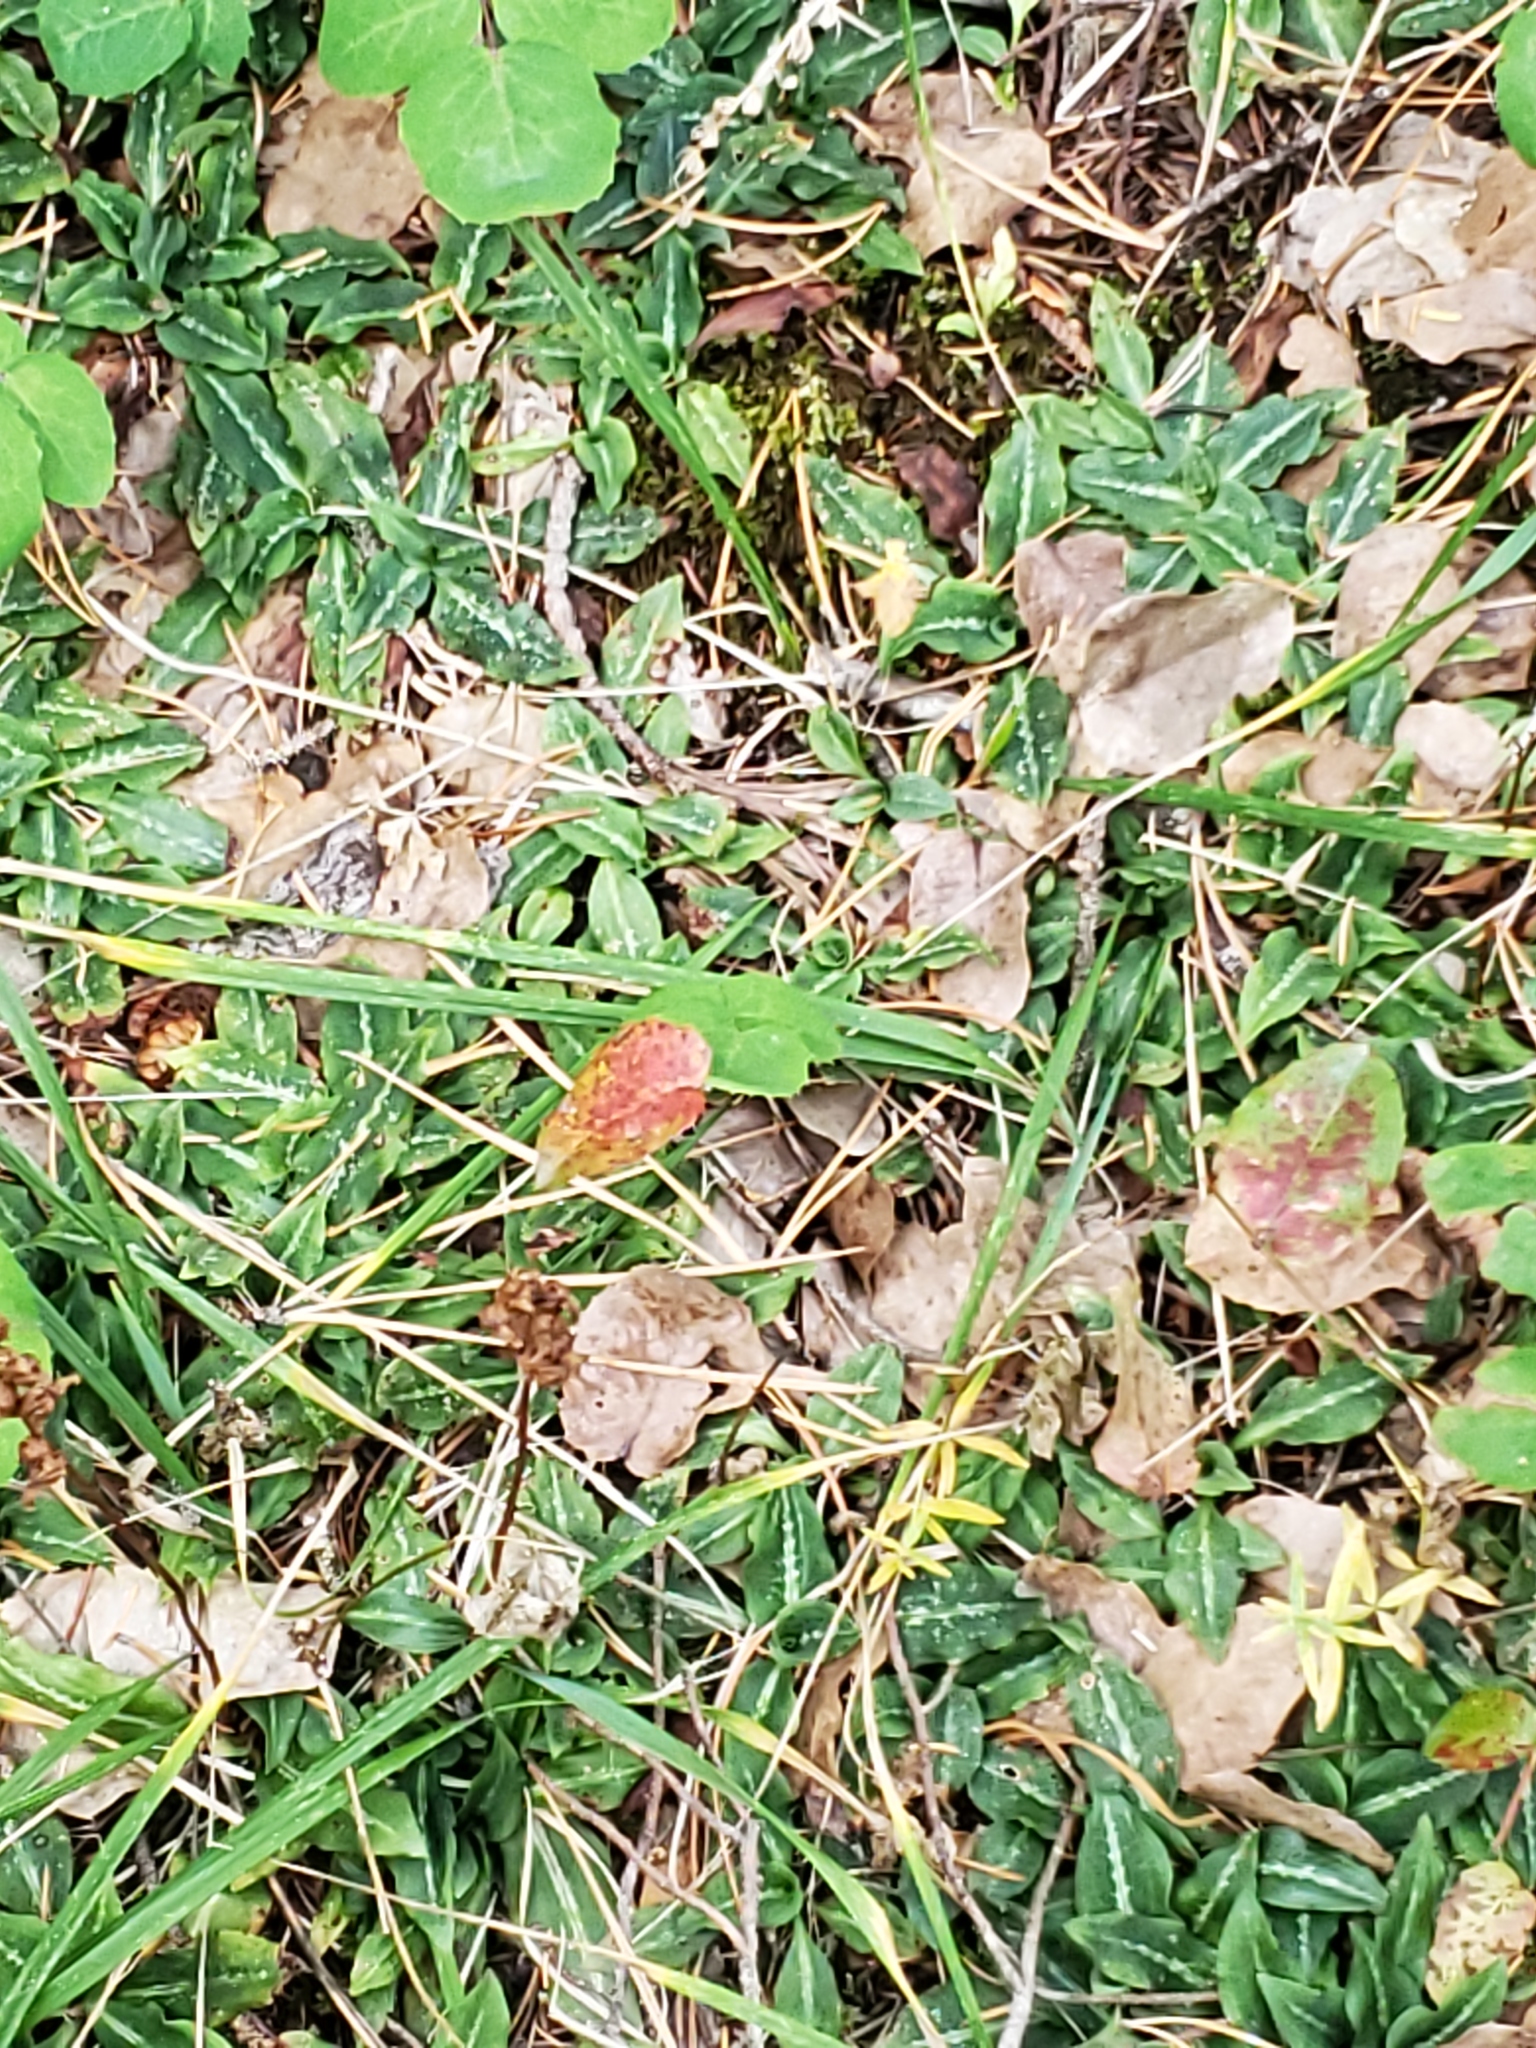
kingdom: Plantae
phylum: Tracheophyta
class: Liliopsida
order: Asparagales
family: Orchidaceae
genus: Goodyera
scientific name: Goodyera oblongifolia
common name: Giant rattlesnake-plantain
